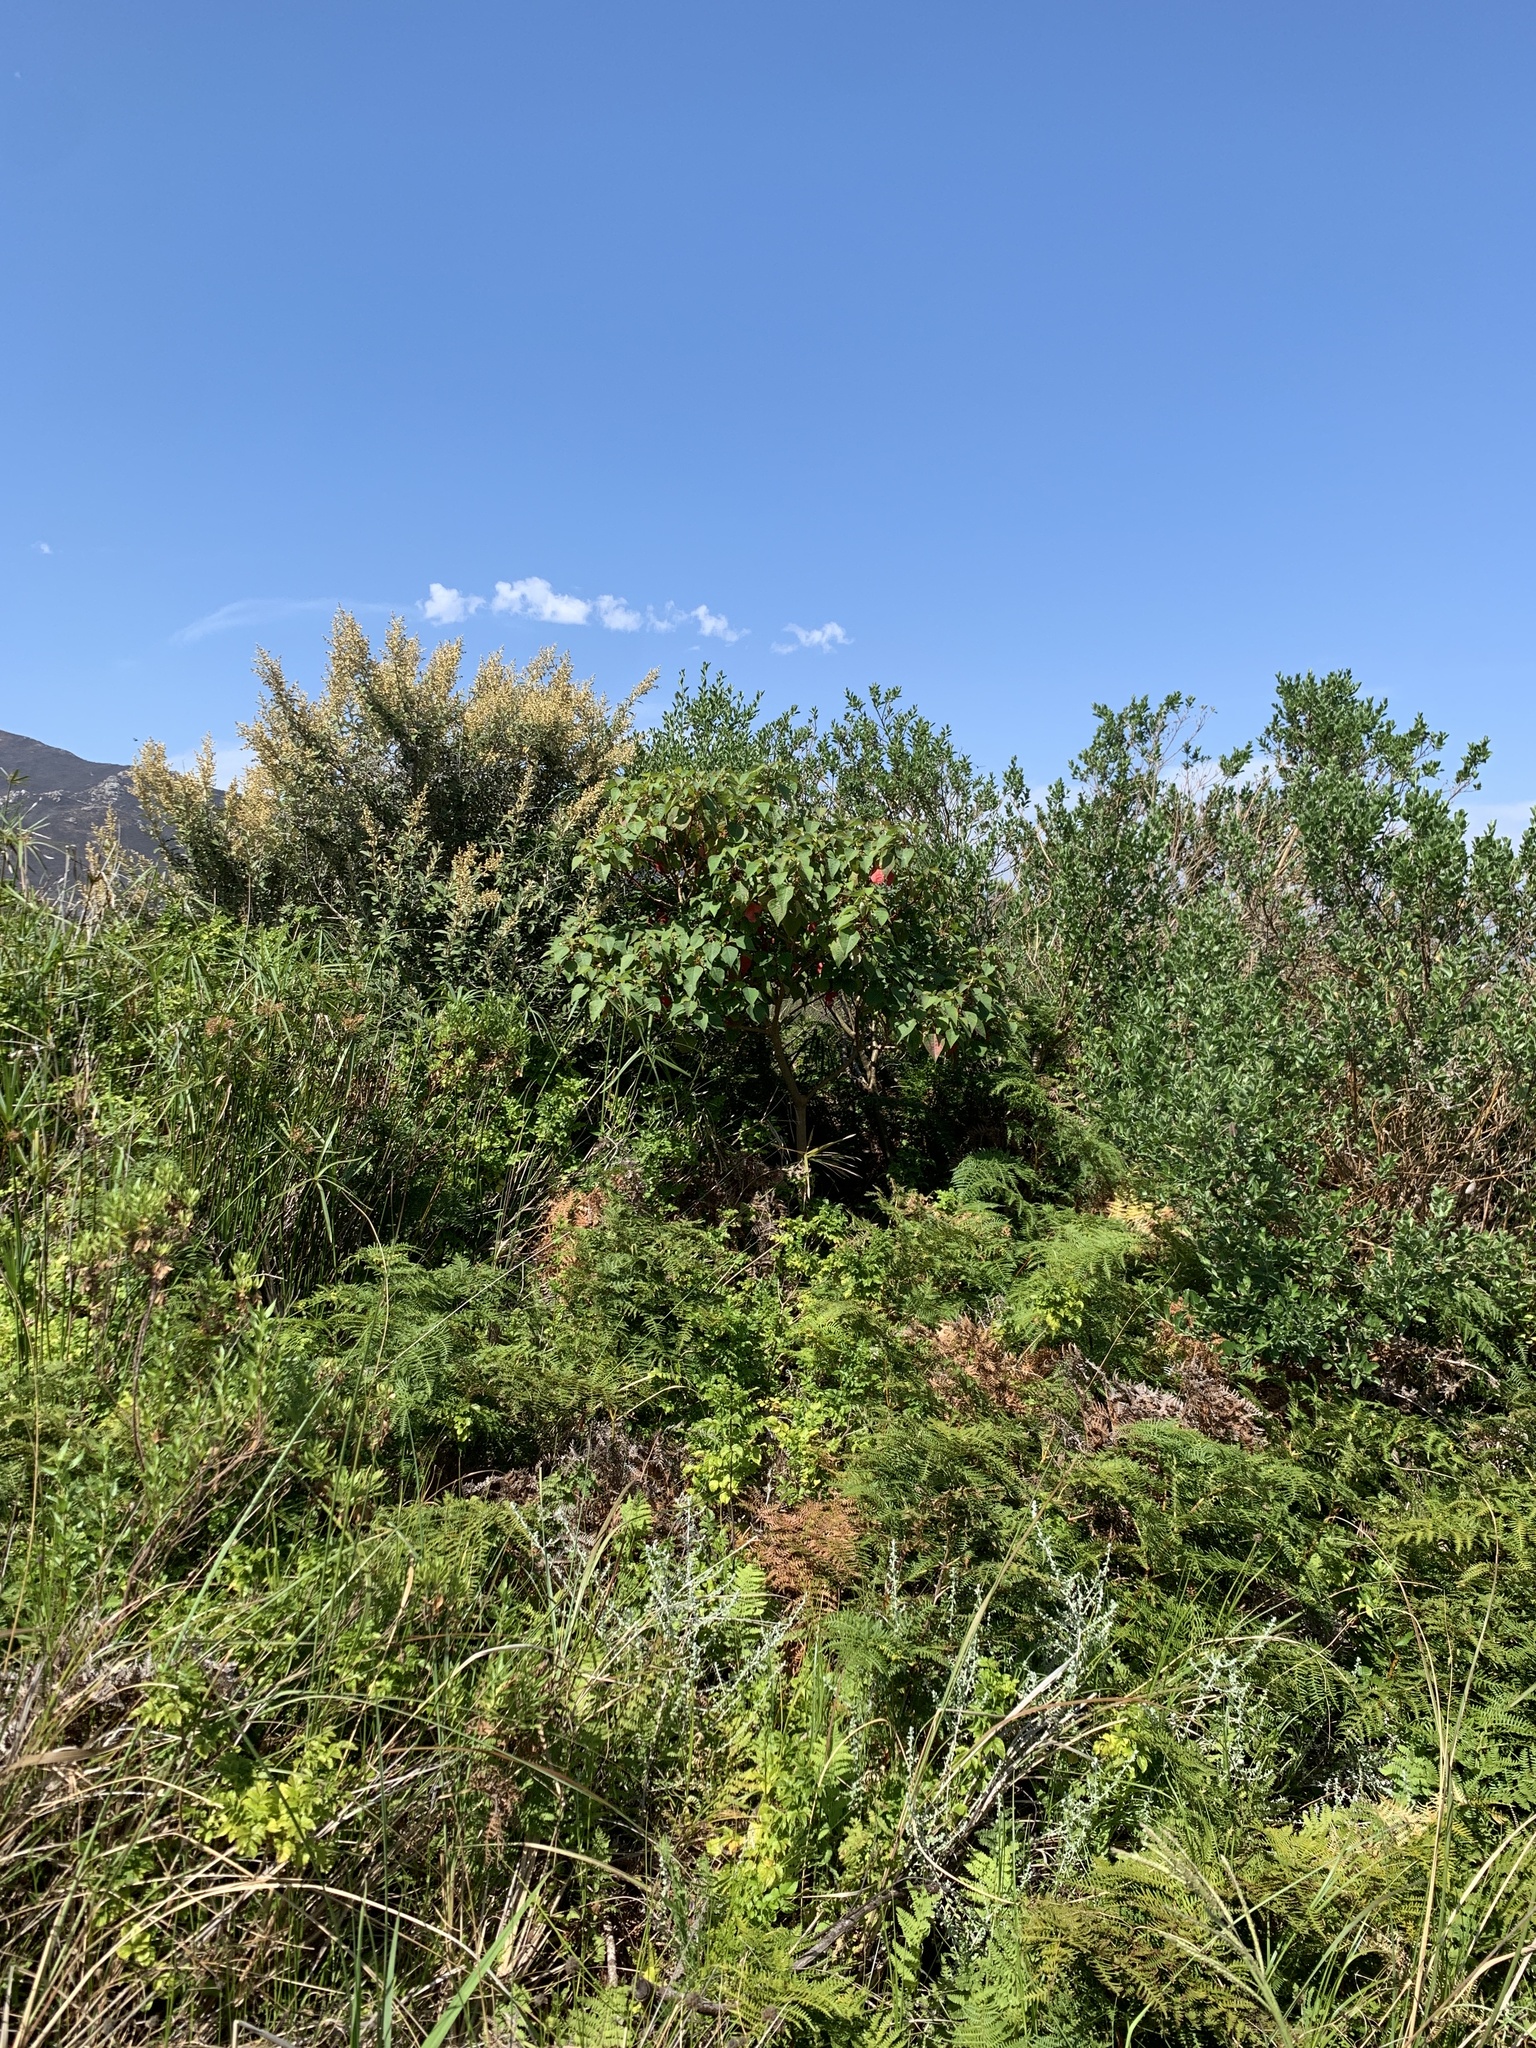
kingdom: Plantae
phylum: Tracheophyta
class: Magnoliopsida
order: Malpighiales
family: Euphorbiaceae
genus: Homalanthus
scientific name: Homalanthus populifolius
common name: Queensland poplar
